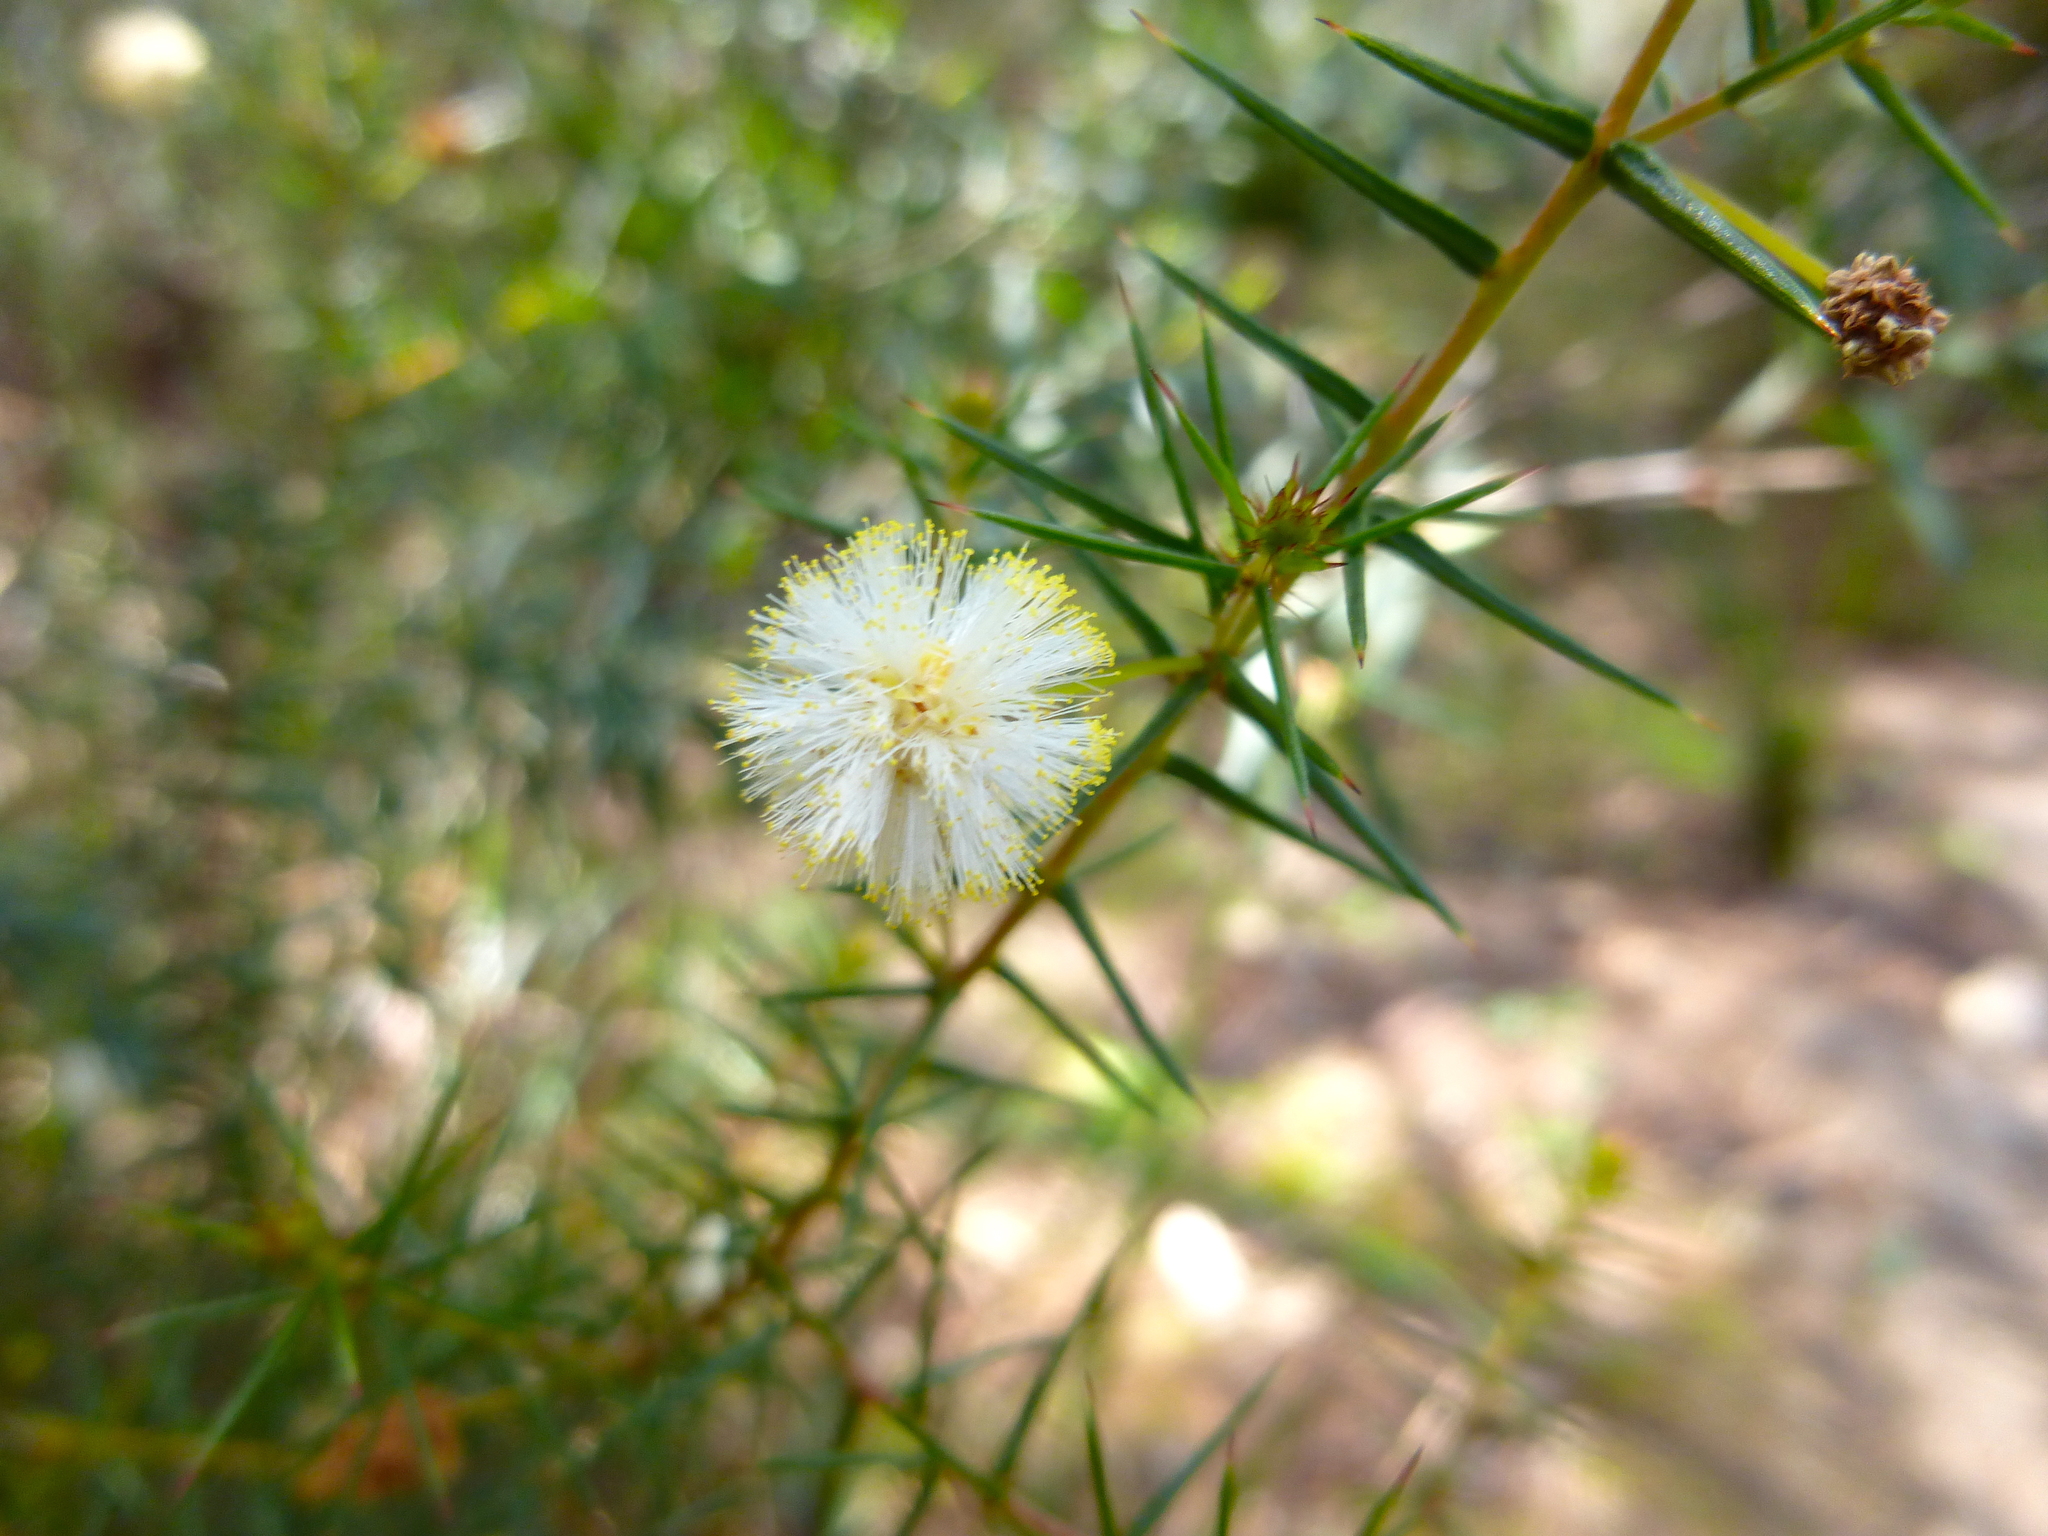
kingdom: Plantae
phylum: Tracheophyta
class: Magnoliopsida
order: Fabales
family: Fabaceae
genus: Acacia
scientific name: Acacia ulicifolia
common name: Juniper wattle
